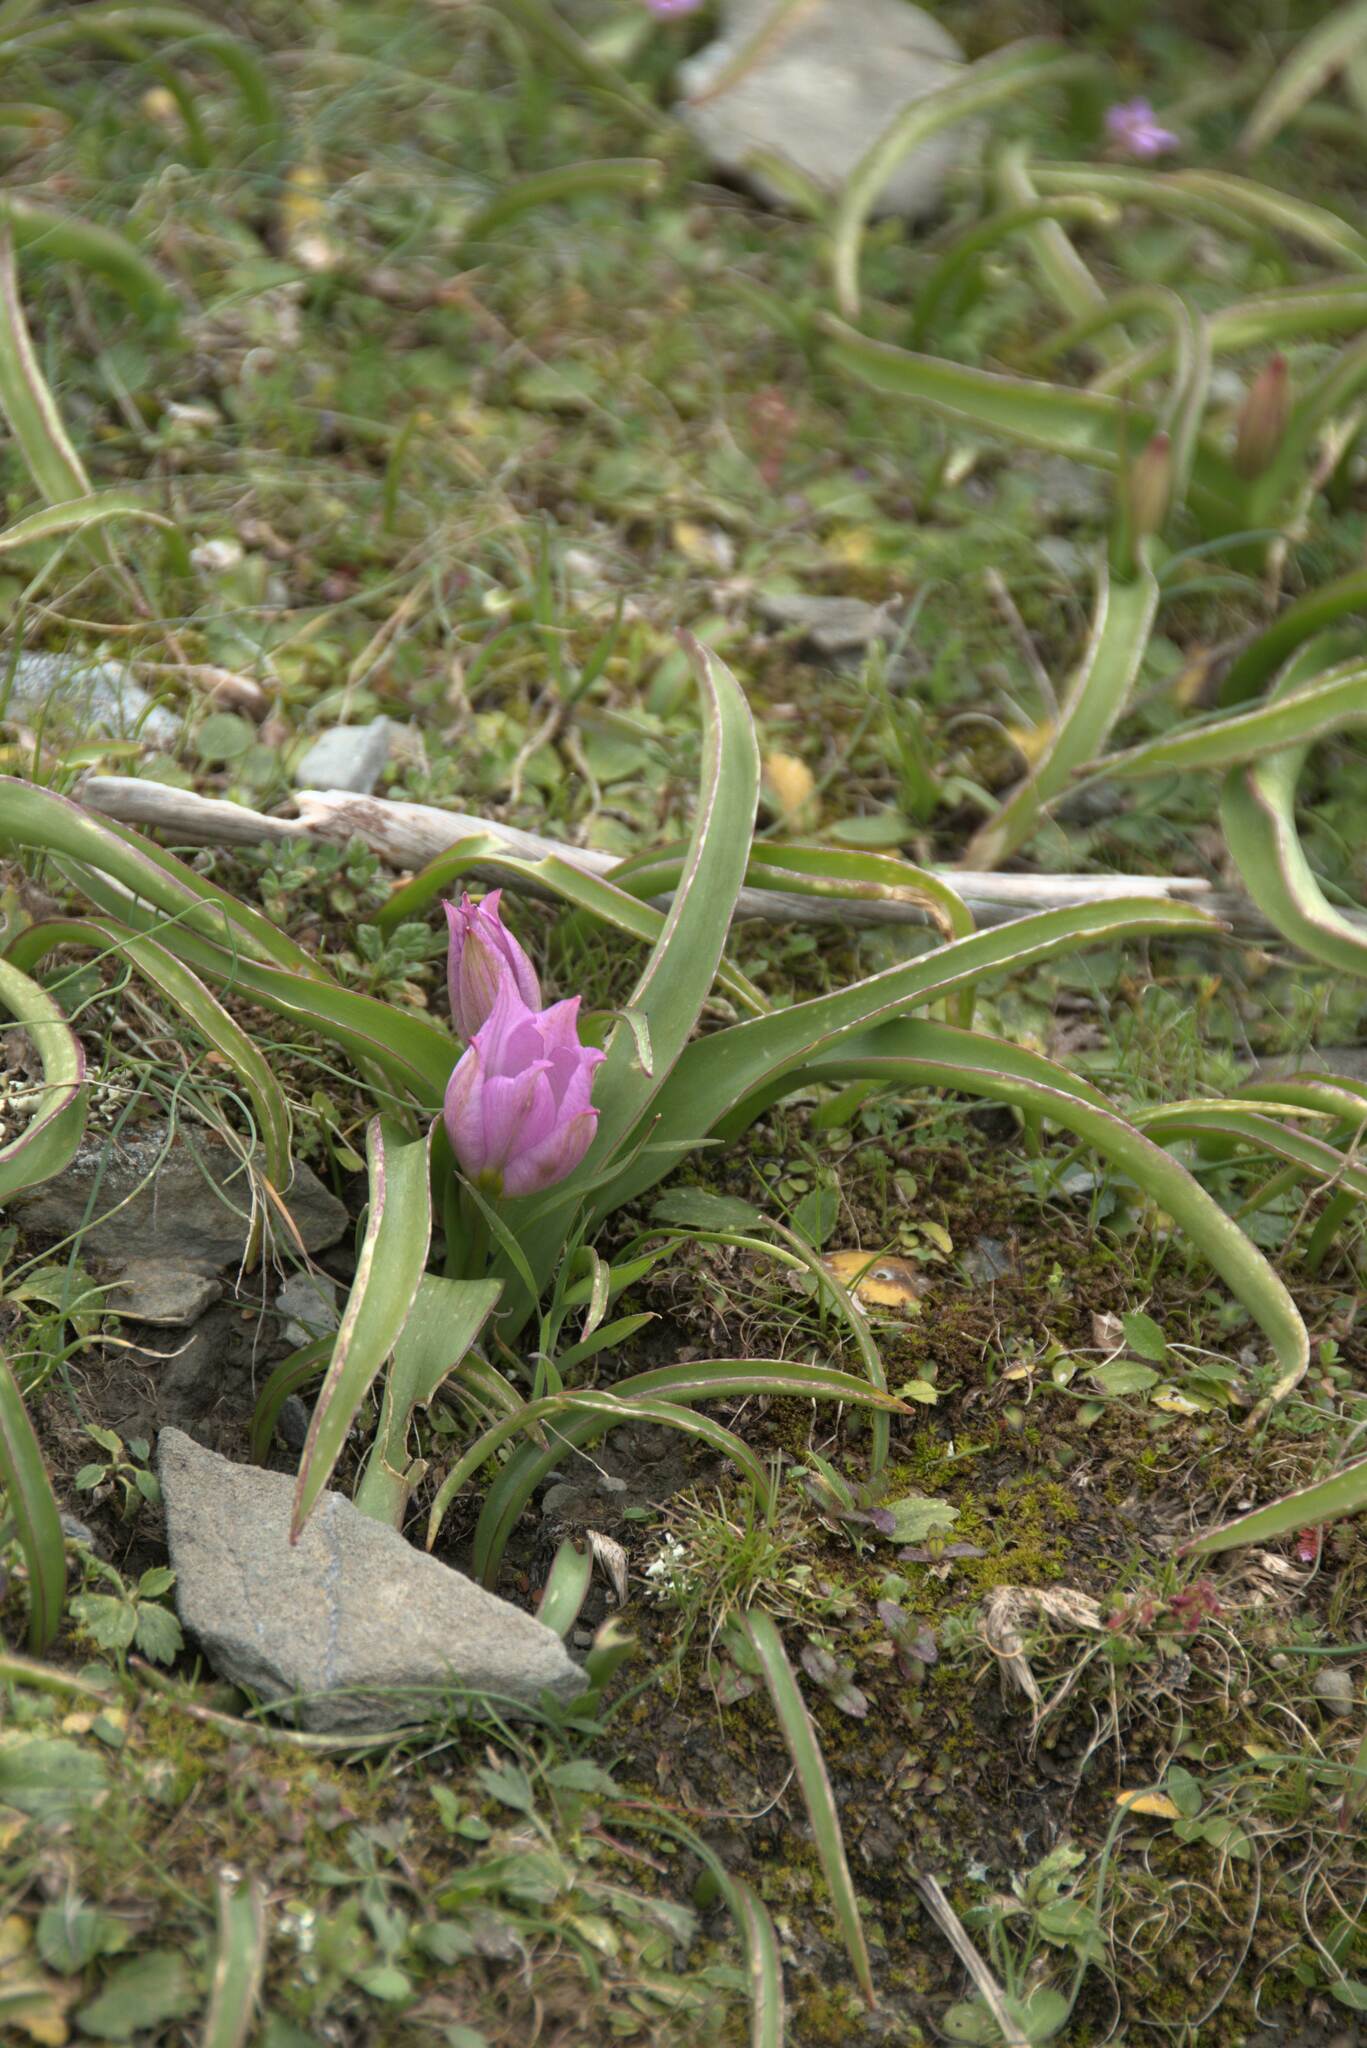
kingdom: Plantae
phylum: Tracheophyta
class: Liliopsida
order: Liliales
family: Liliaceae
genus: Tulipa
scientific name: Tulipa saxatilis
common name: Cretan tulip
